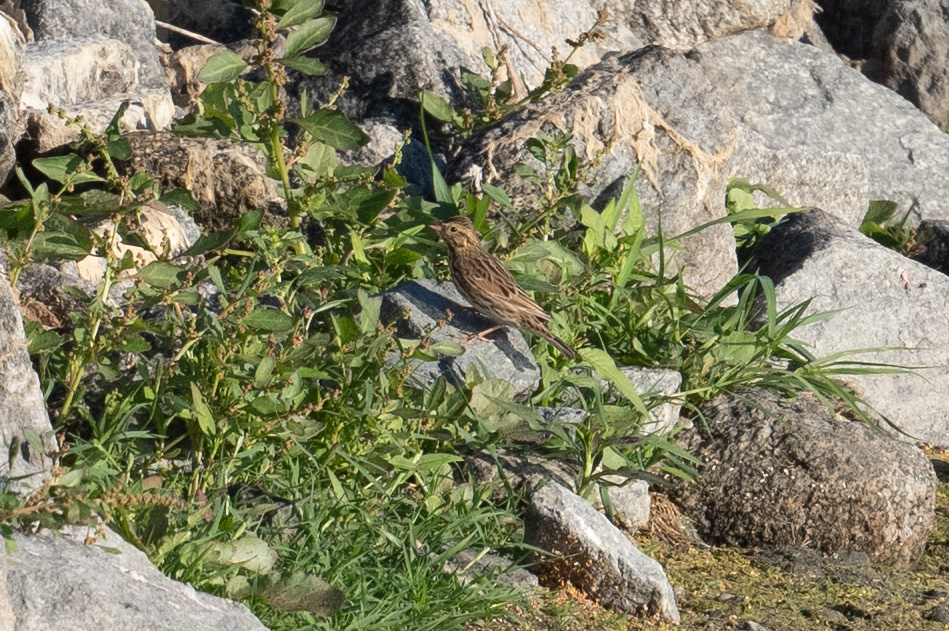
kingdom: Animalia
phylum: Chordata
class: Aves
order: Passeriformes
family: Passerellidae
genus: Passerculus
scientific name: Passerculus sandwichensis
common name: Savannah sparrow
